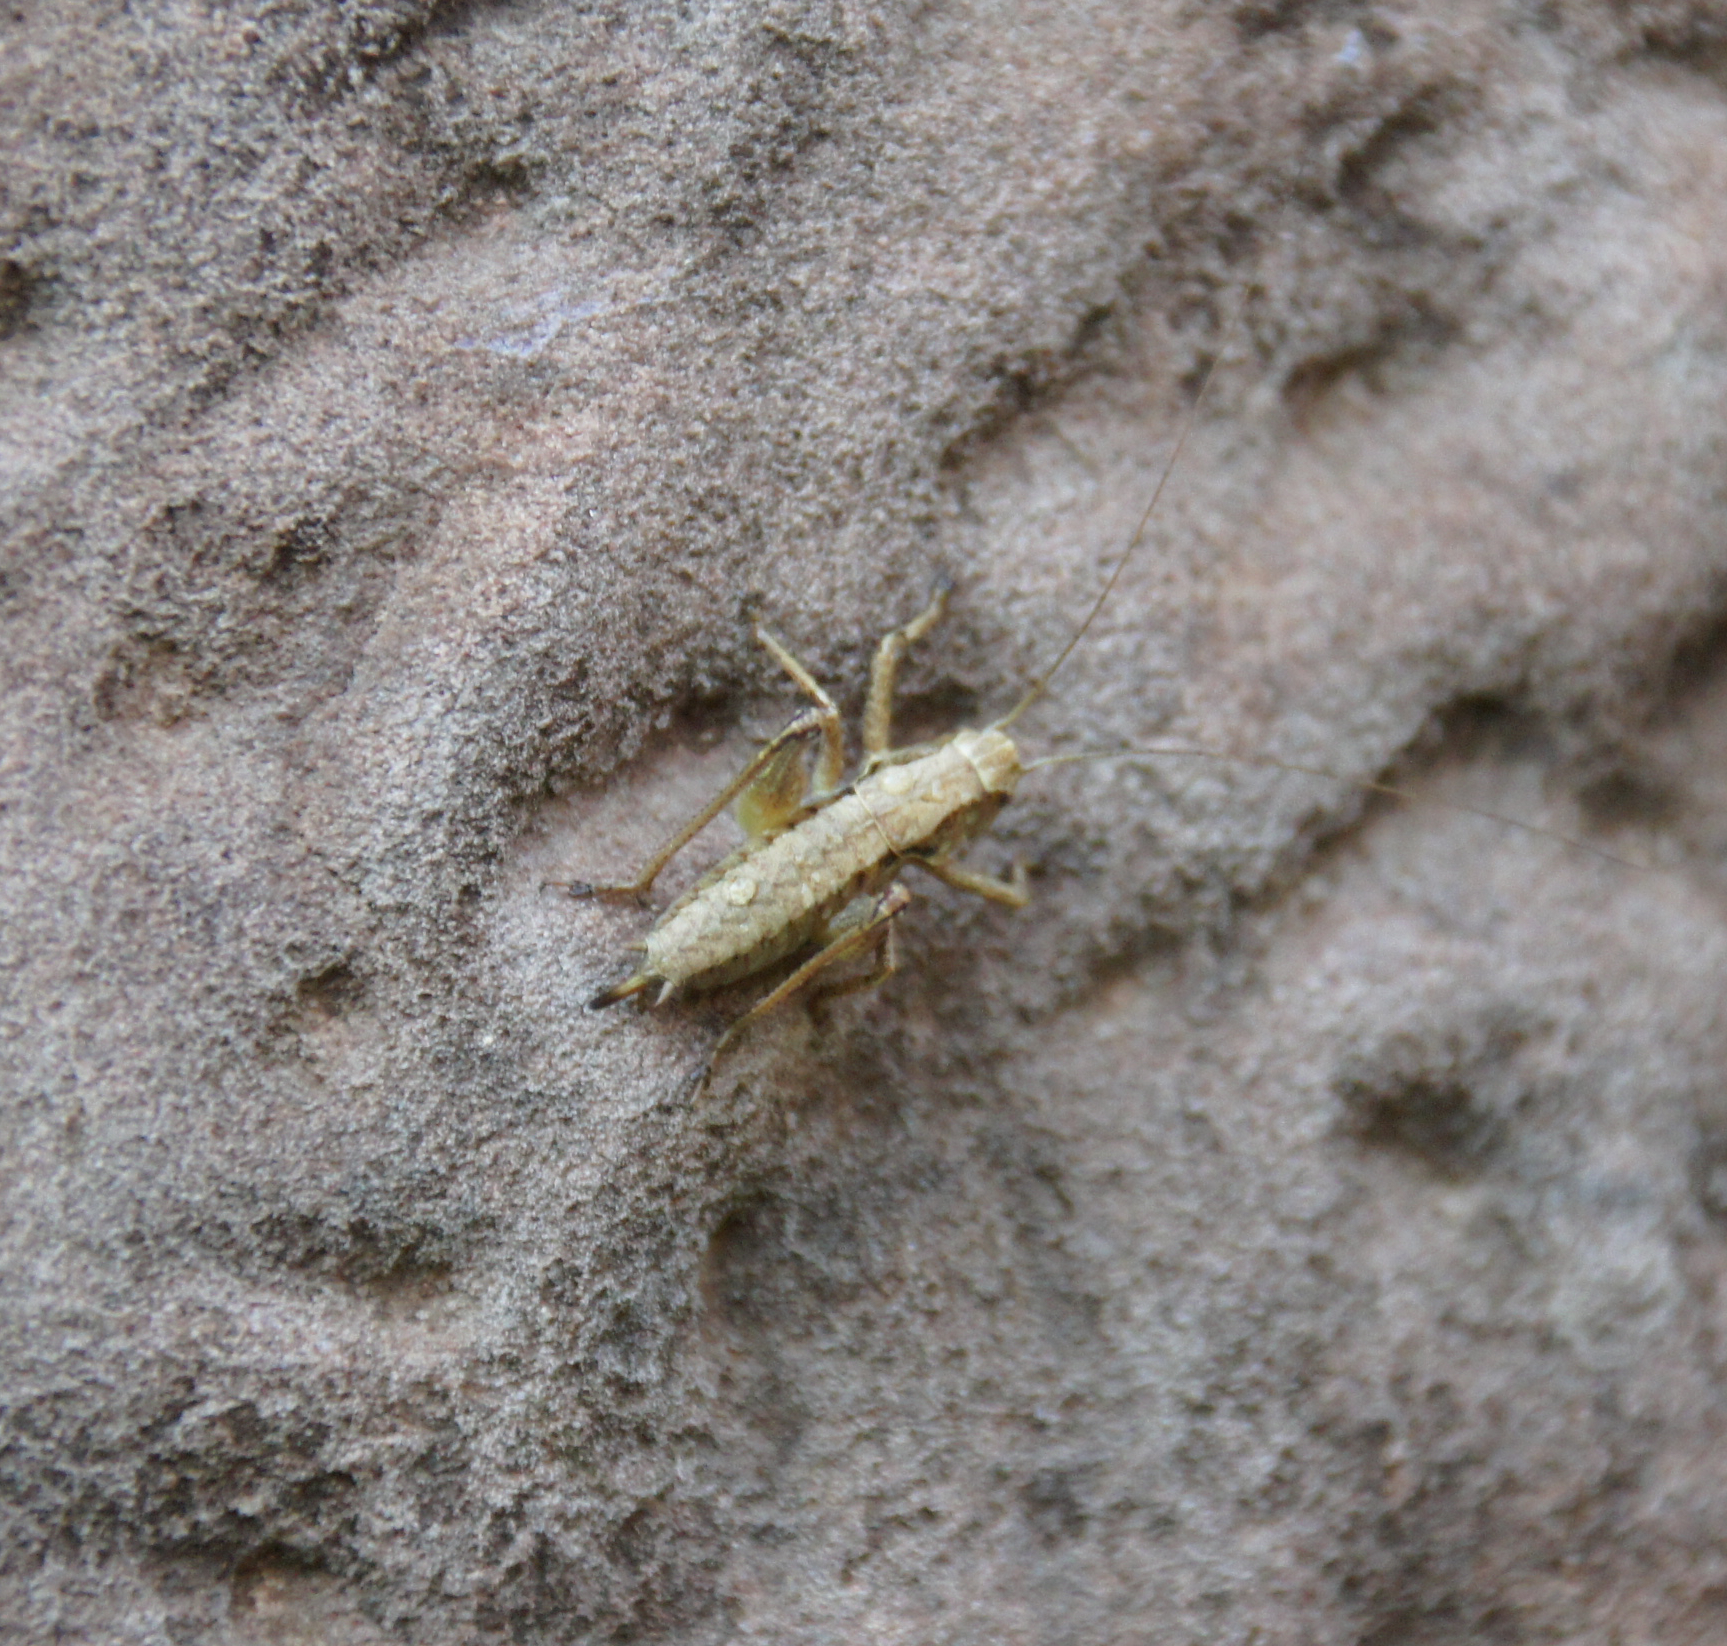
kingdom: Animalia
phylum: Arthropoda
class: Insecta
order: Orthoptera
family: Tettigoniidae
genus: Pholidoptera
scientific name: Pholidoptera griseoaptera
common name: Dark bush-cricket
